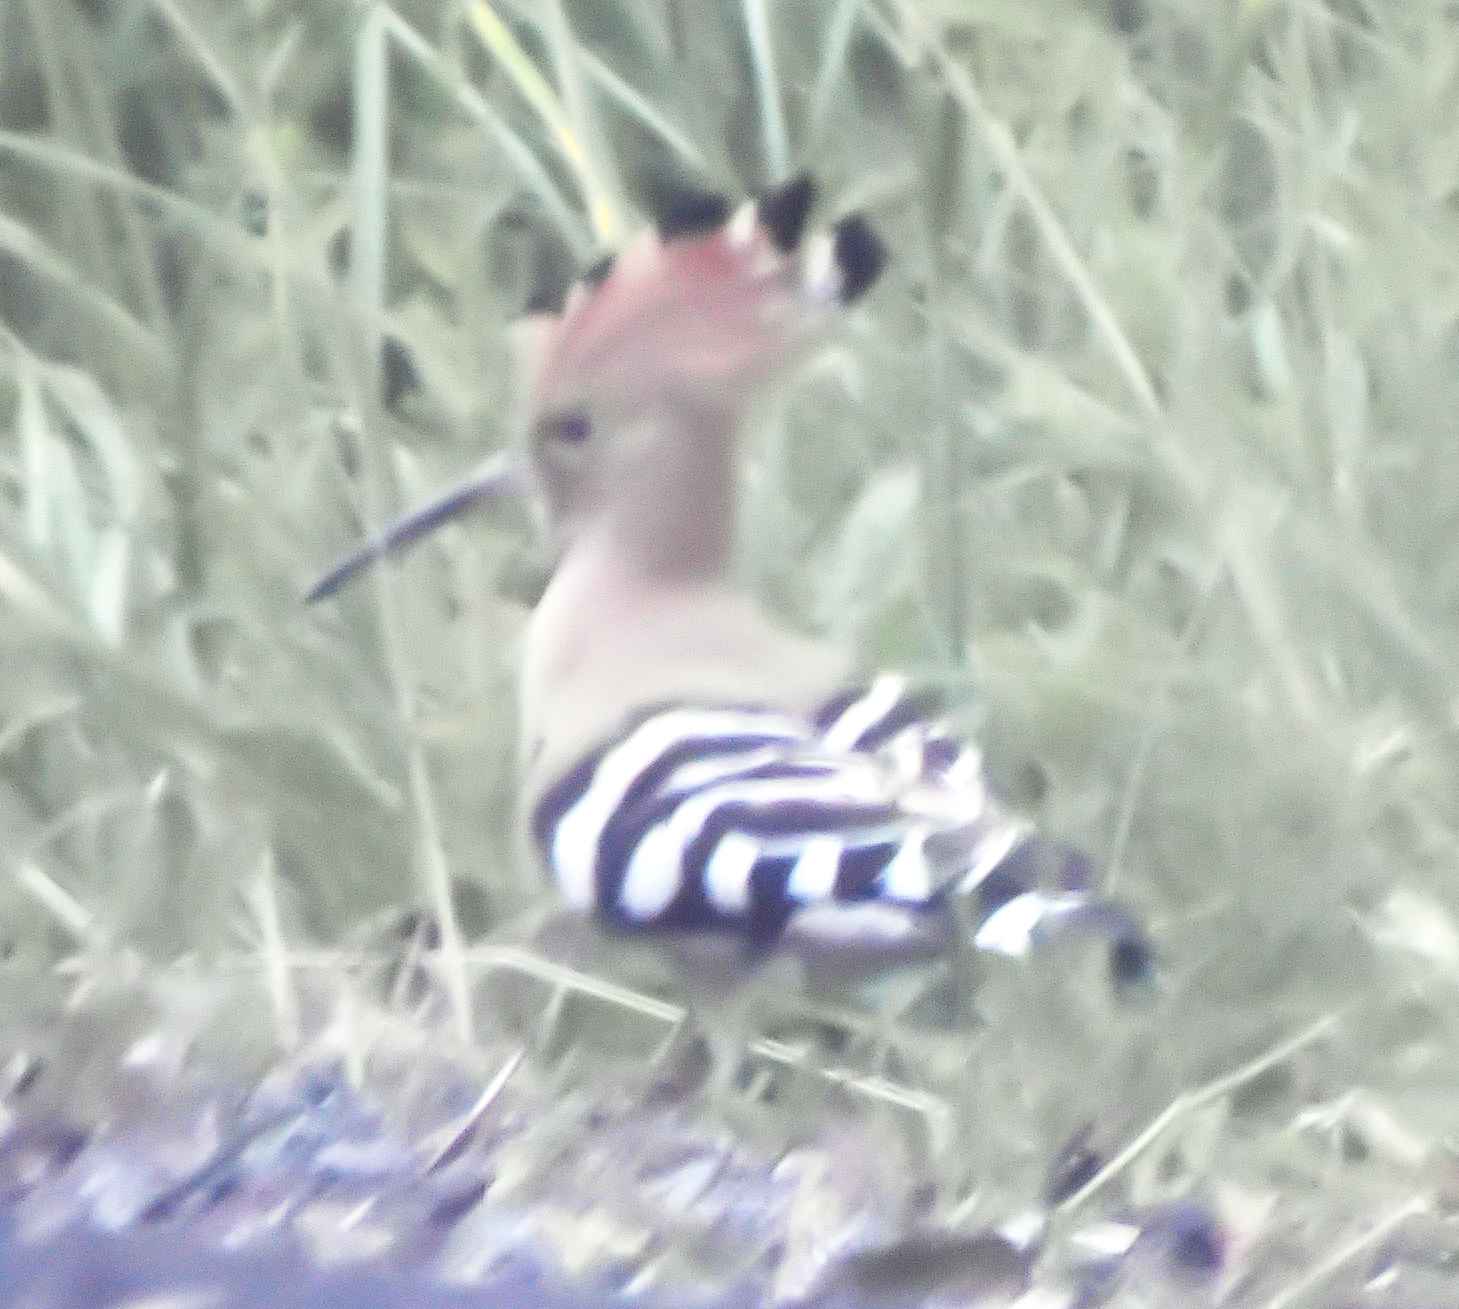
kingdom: Animalia
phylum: Chordata
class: Aves
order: Bucerotiformes
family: Upupidae
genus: Upupa
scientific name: Upupa epops
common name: Eurasian hoopoe
